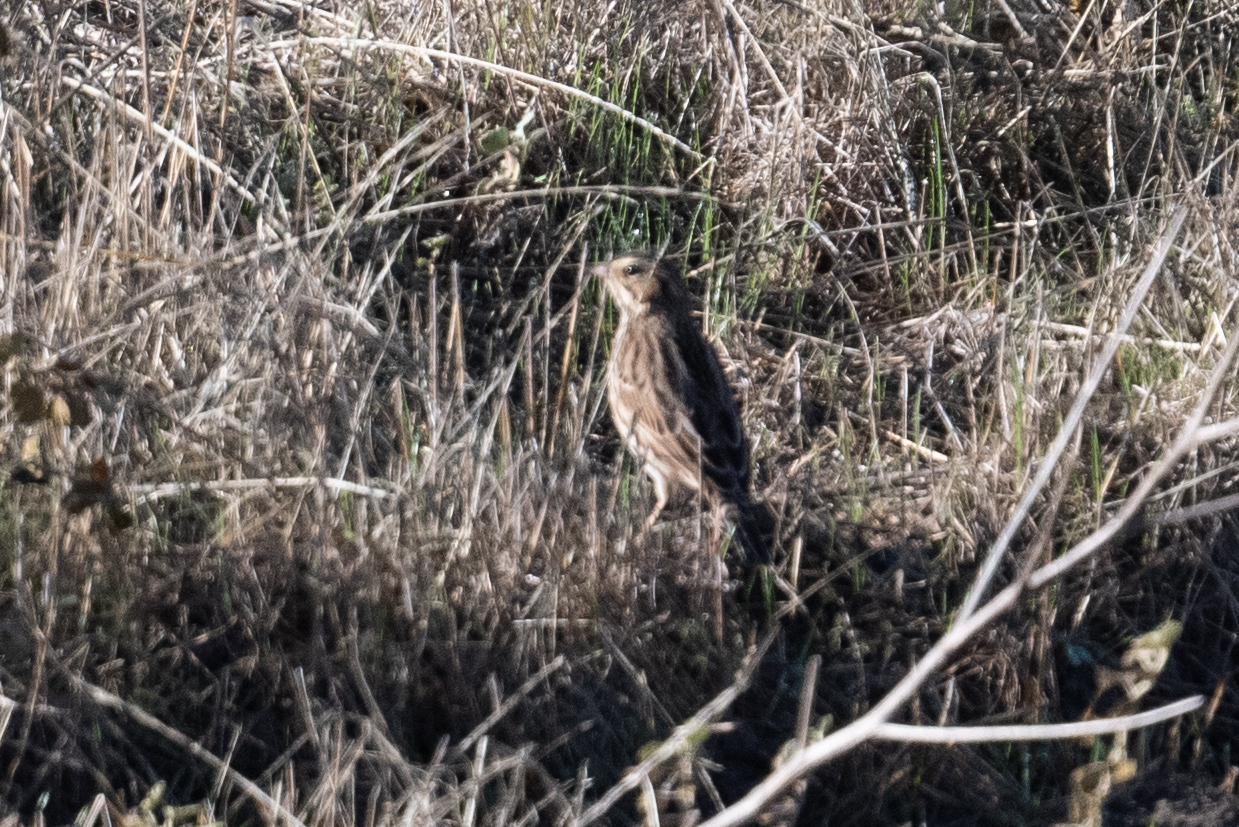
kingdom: Animalia
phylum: Chordata
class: Aves
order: Passeriformes
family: Passerellidae
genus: Passerculus
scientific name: Passerculus sandwichensis
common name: Savannah sparrow
